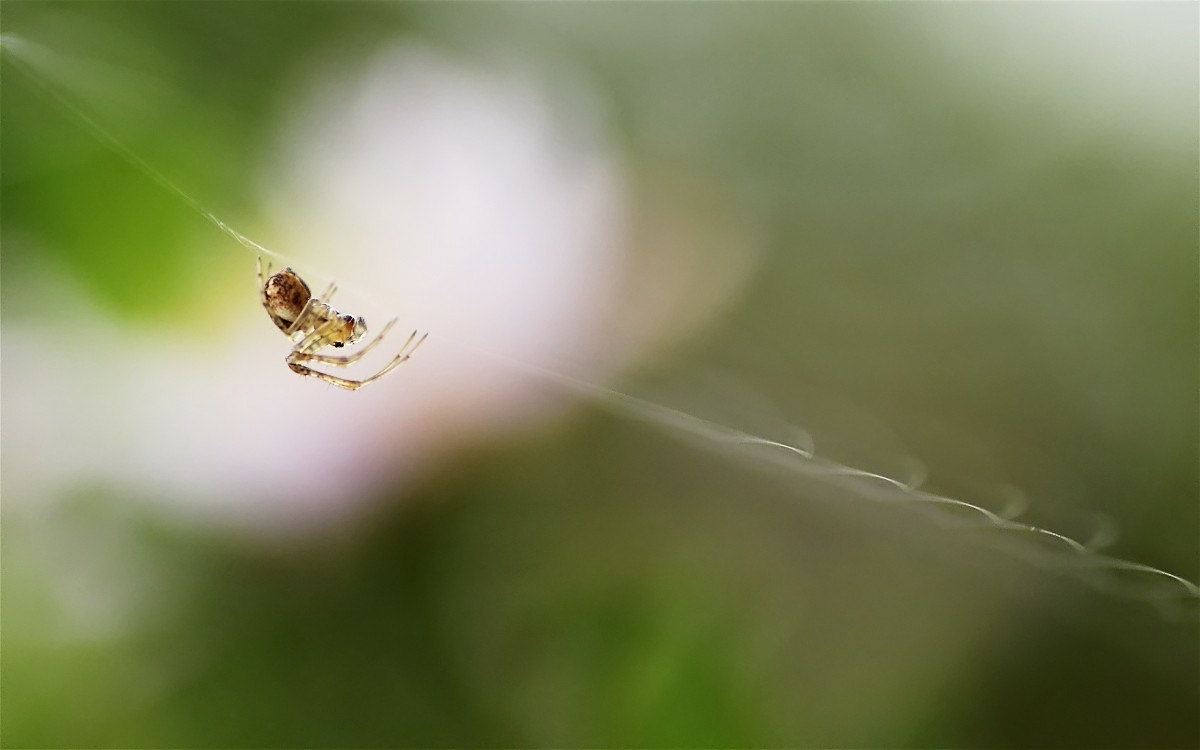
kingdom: Animalia
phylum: Arthropoda
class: Arachnida
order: Araneae
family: Tetragnathidae
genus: Metellina
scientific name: Metellina
